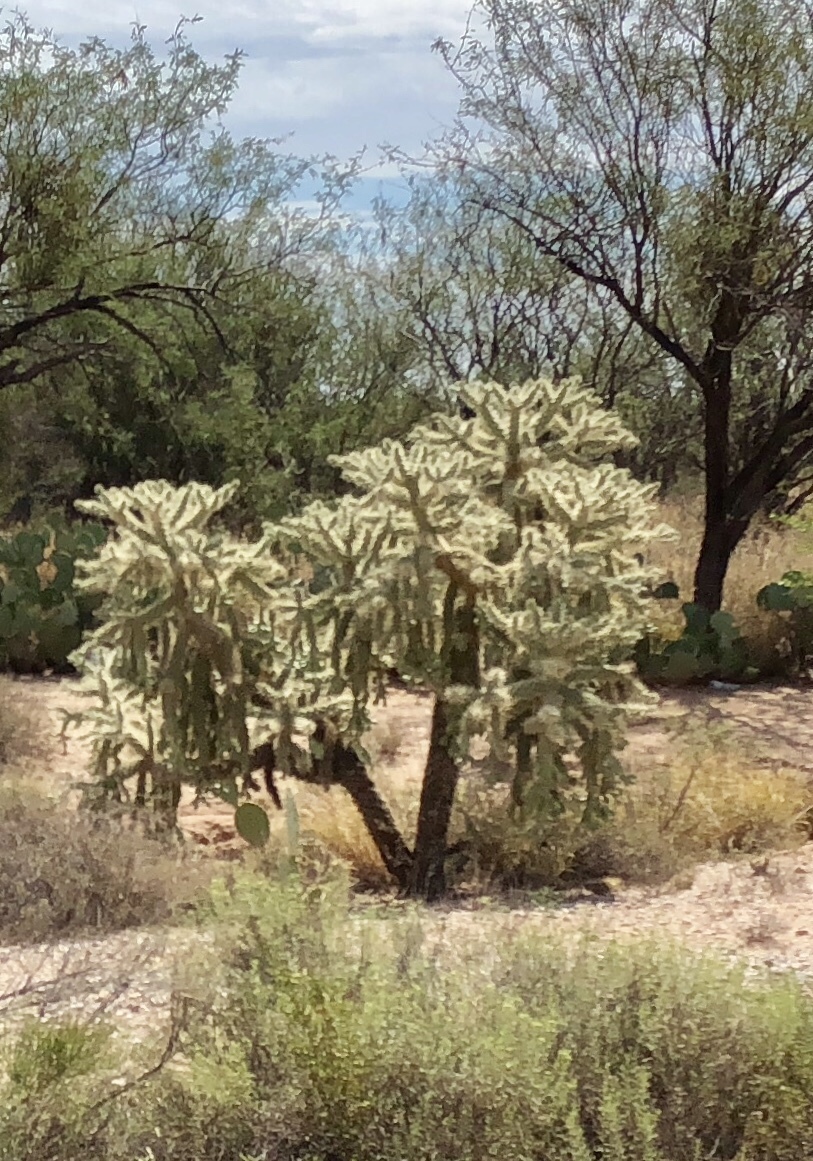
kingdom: Plantae
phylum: Tracheophyta
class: Magnoliopsida
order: Caryophyllales
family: Cactaceae
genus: Cylindropuntia
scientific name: Cylindropuntia fulgida
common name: Jumping cholla
